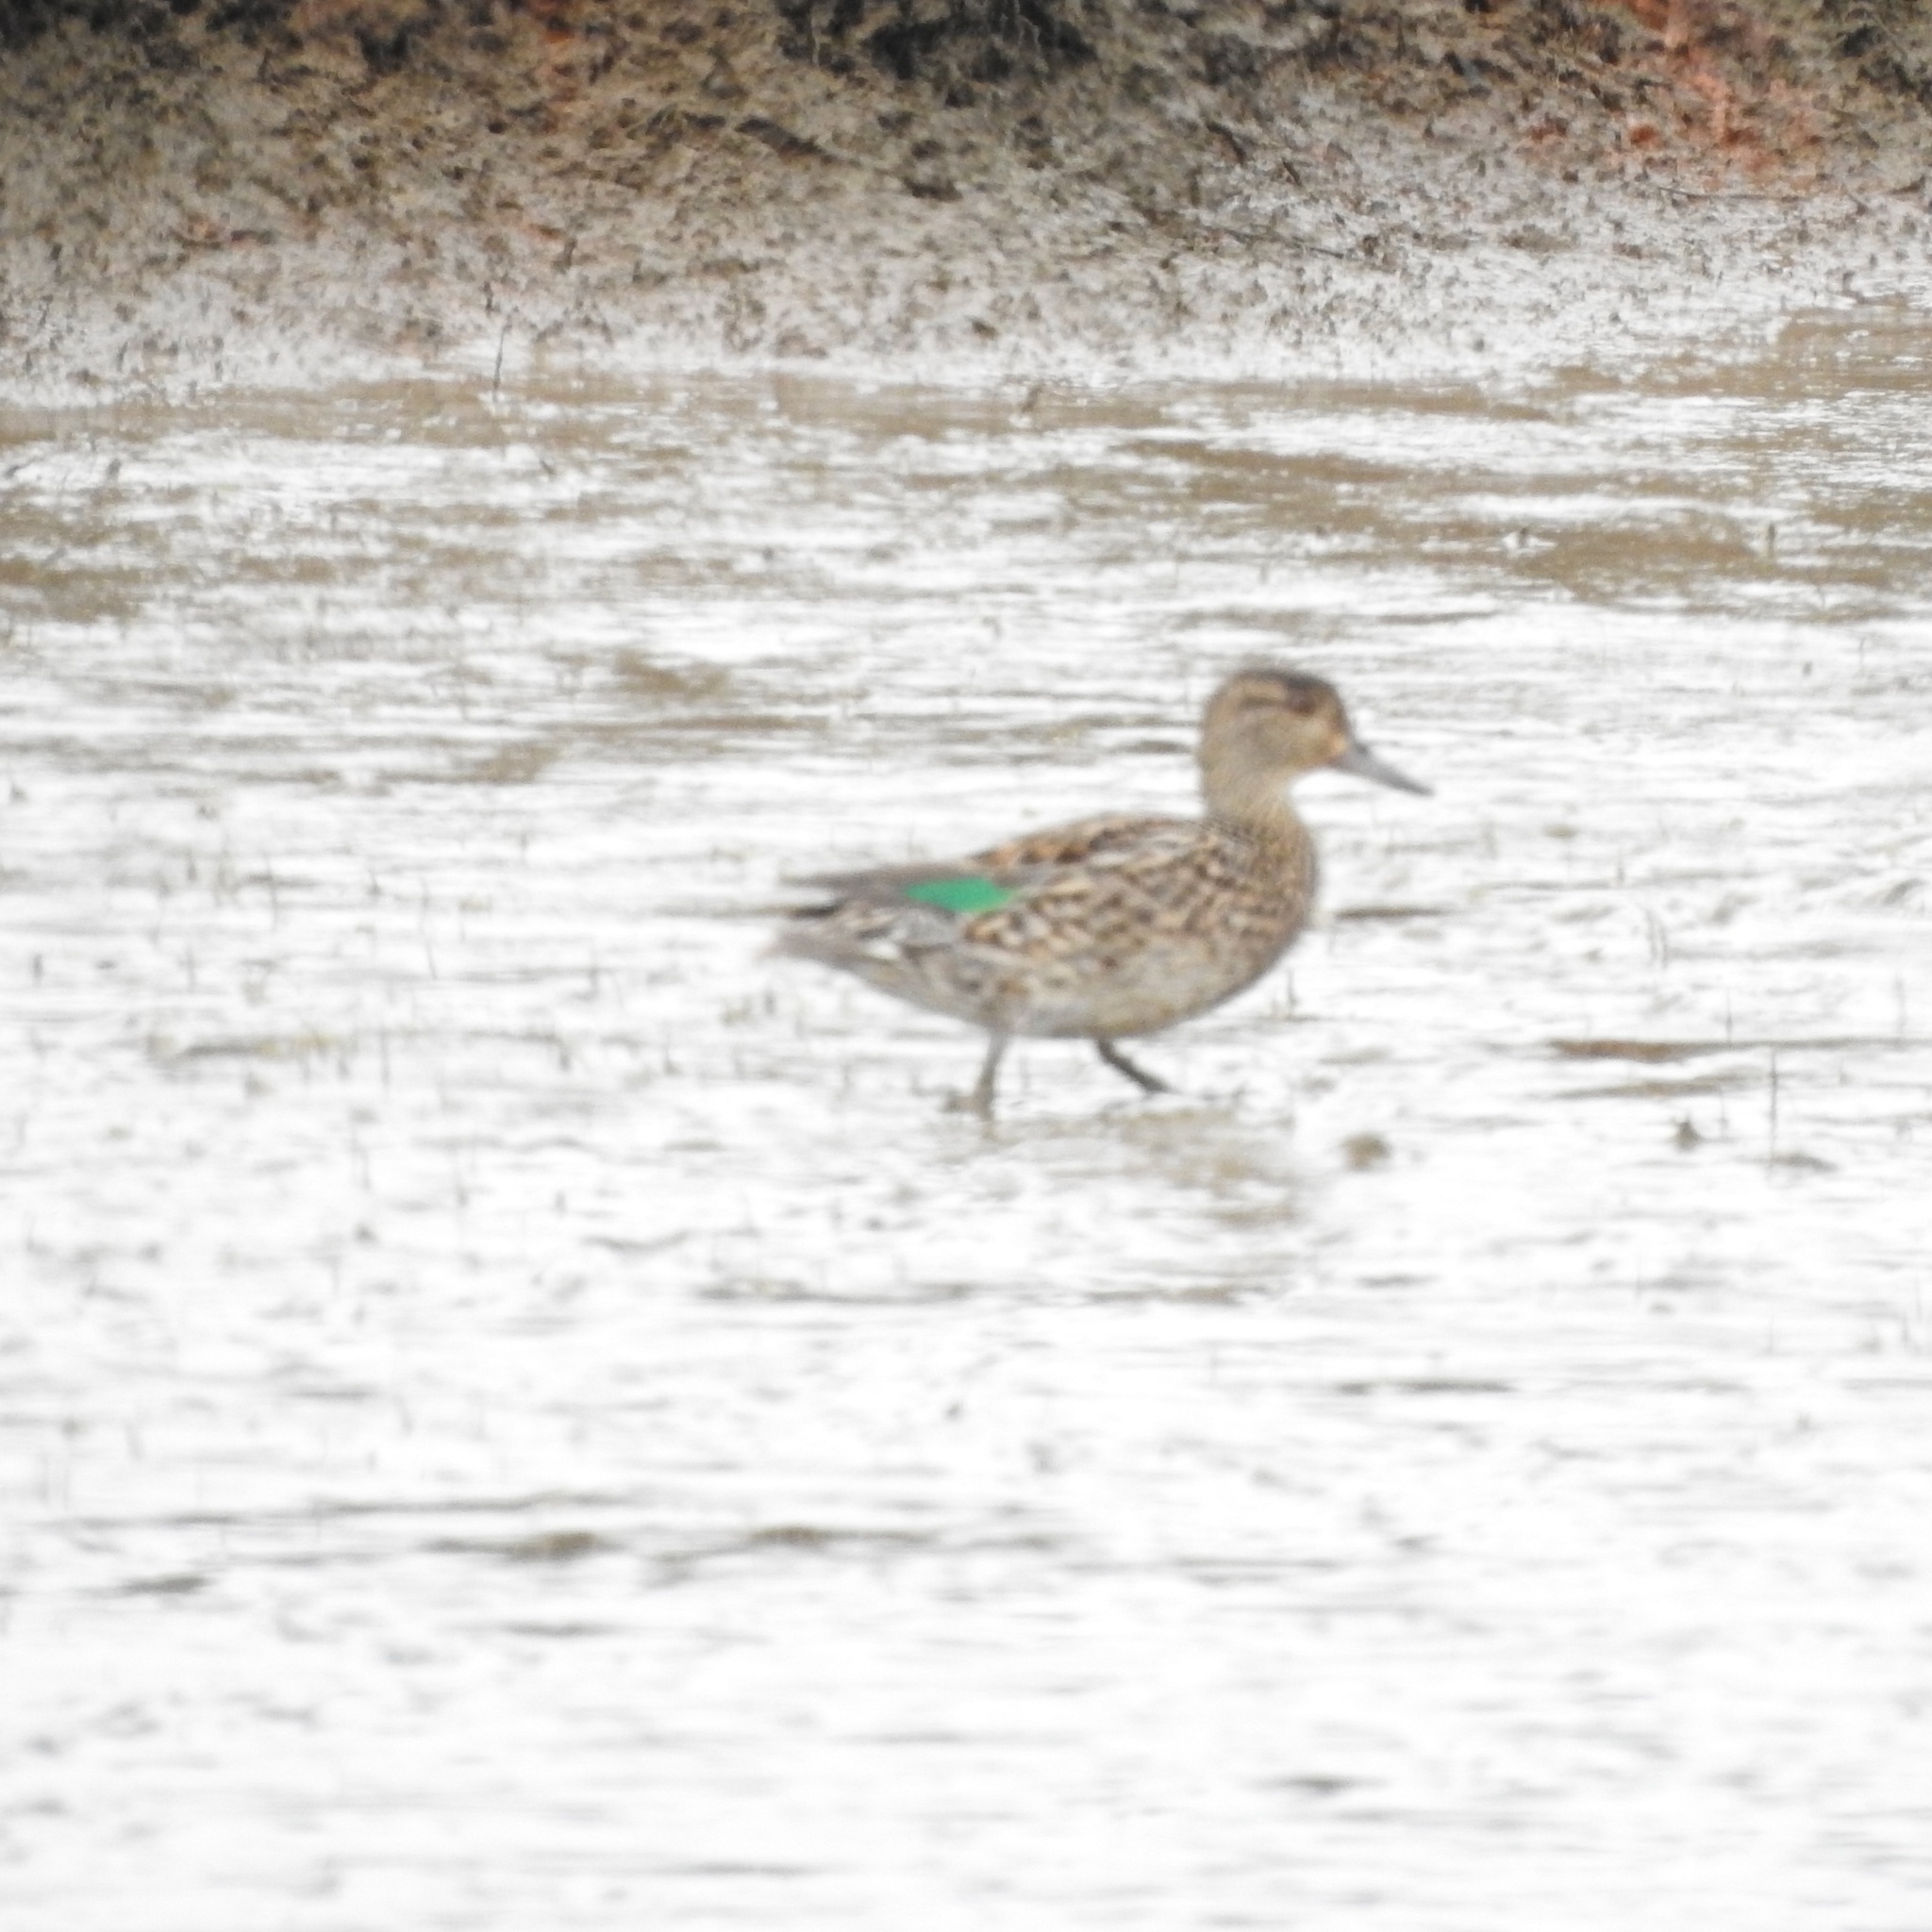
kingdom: Animalia
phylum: Chordata
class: Aves
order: Anseriformes
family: Anatidae
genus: Anas
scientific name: Anas crecca
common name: Eurasian teal
